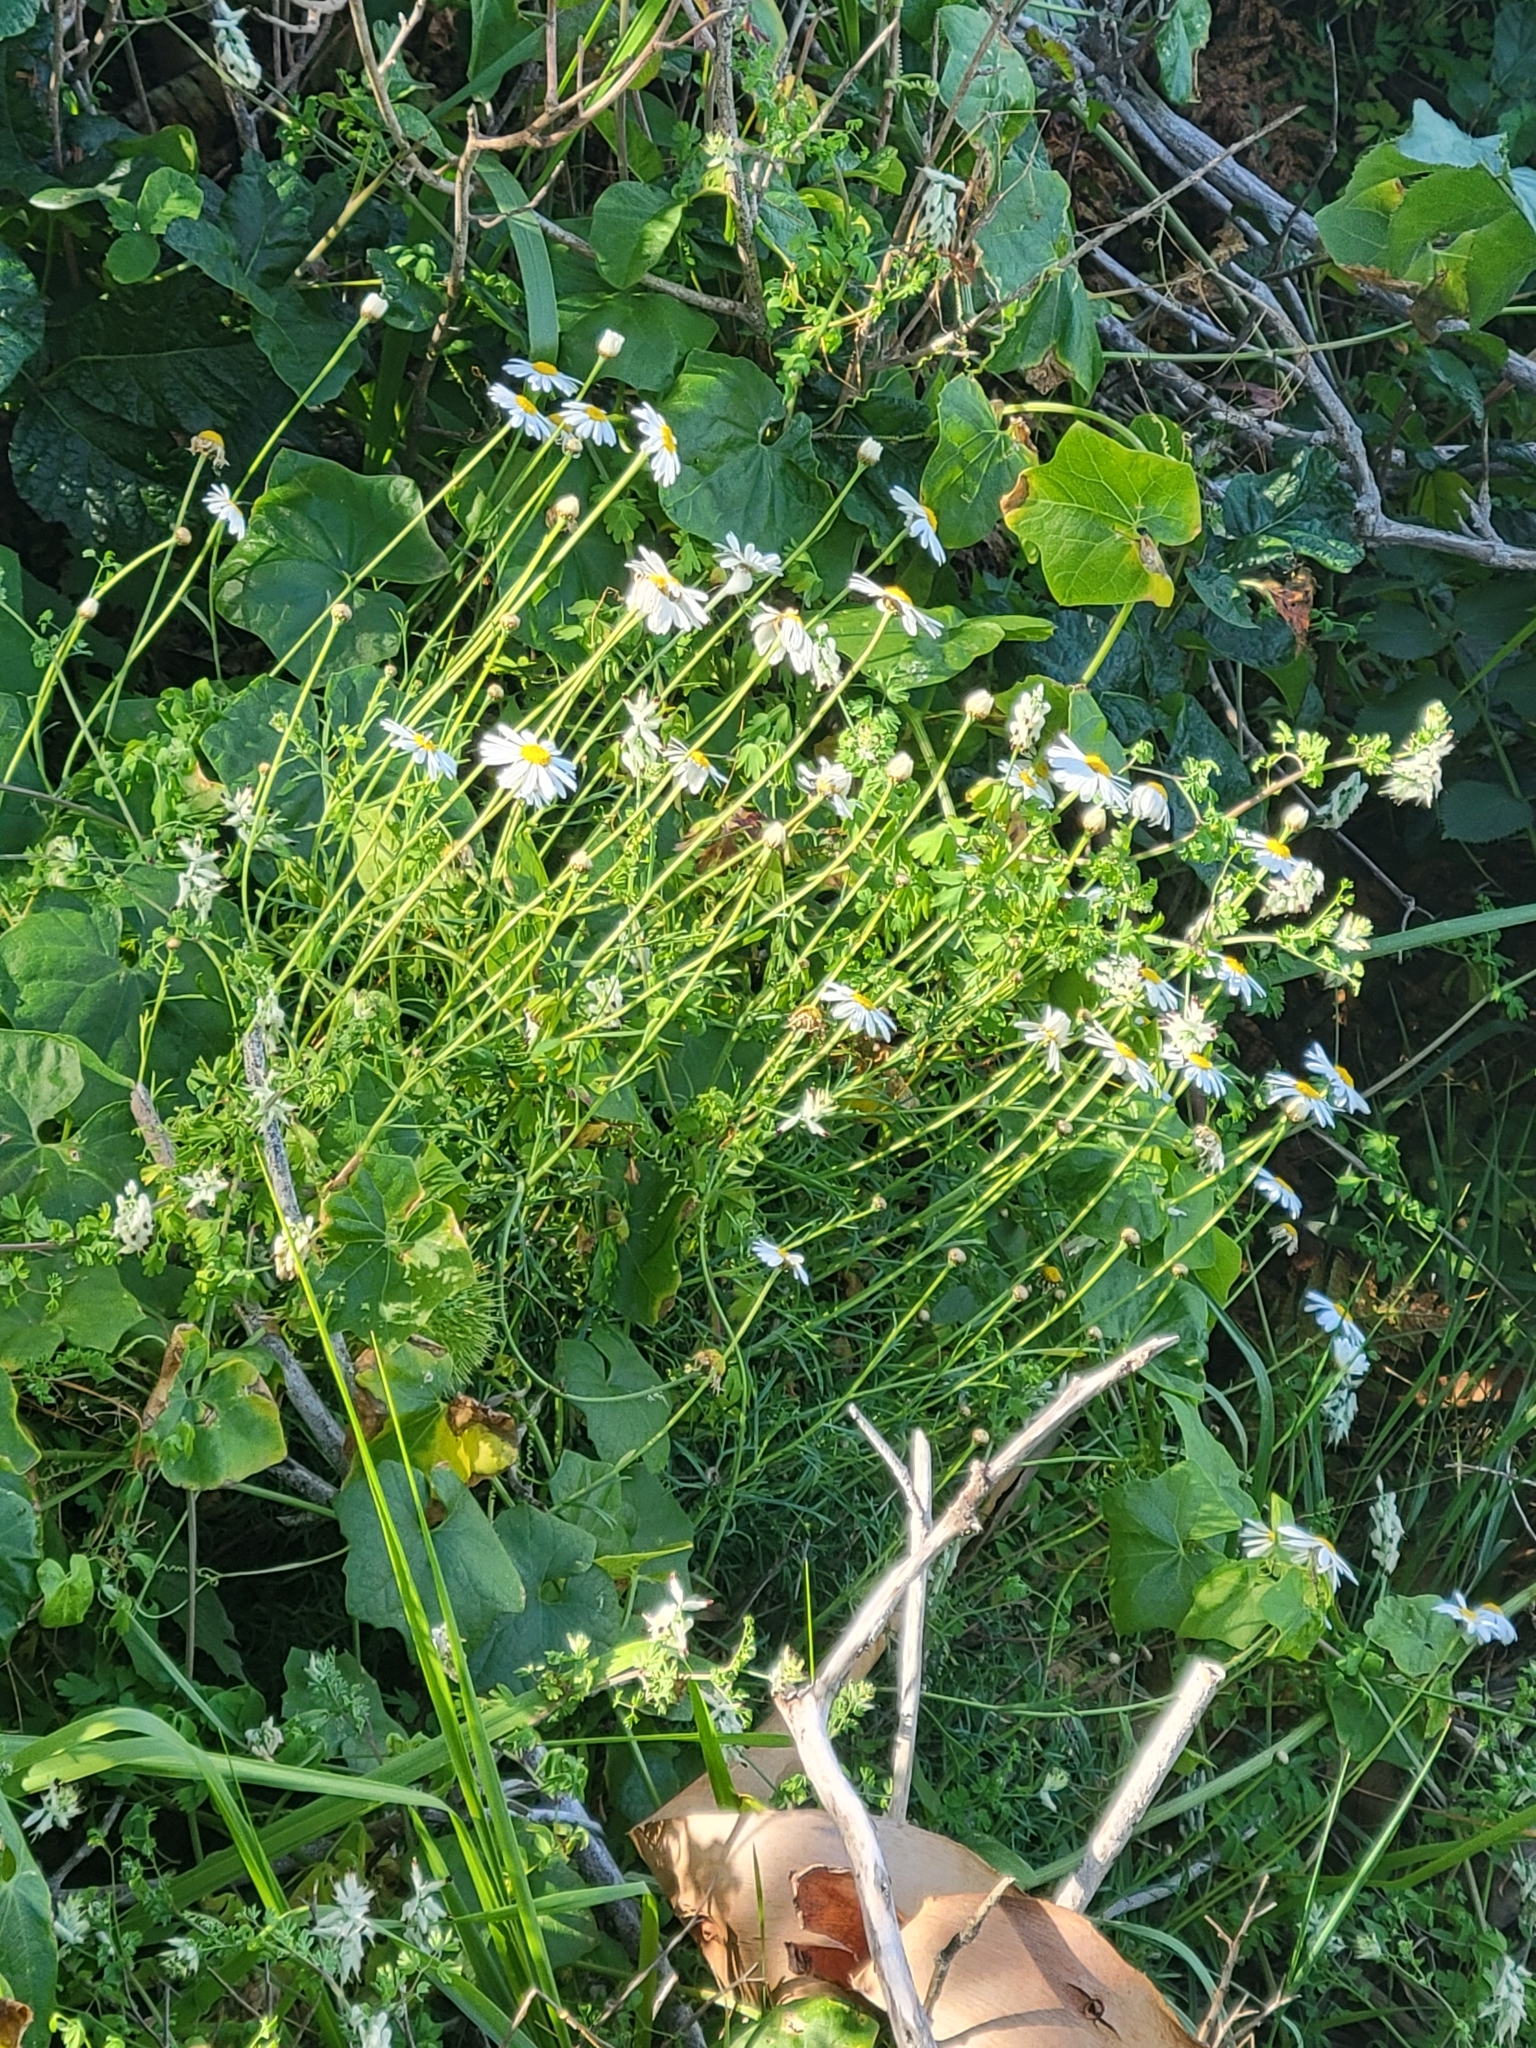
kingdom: Plantae
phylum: Tracheophyta
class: Magnoliopsida
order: Asterales
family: Asteraceae
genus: Argyranthemum
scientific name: Argyranthemum foeniculaceum
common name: Canary island marguerite
